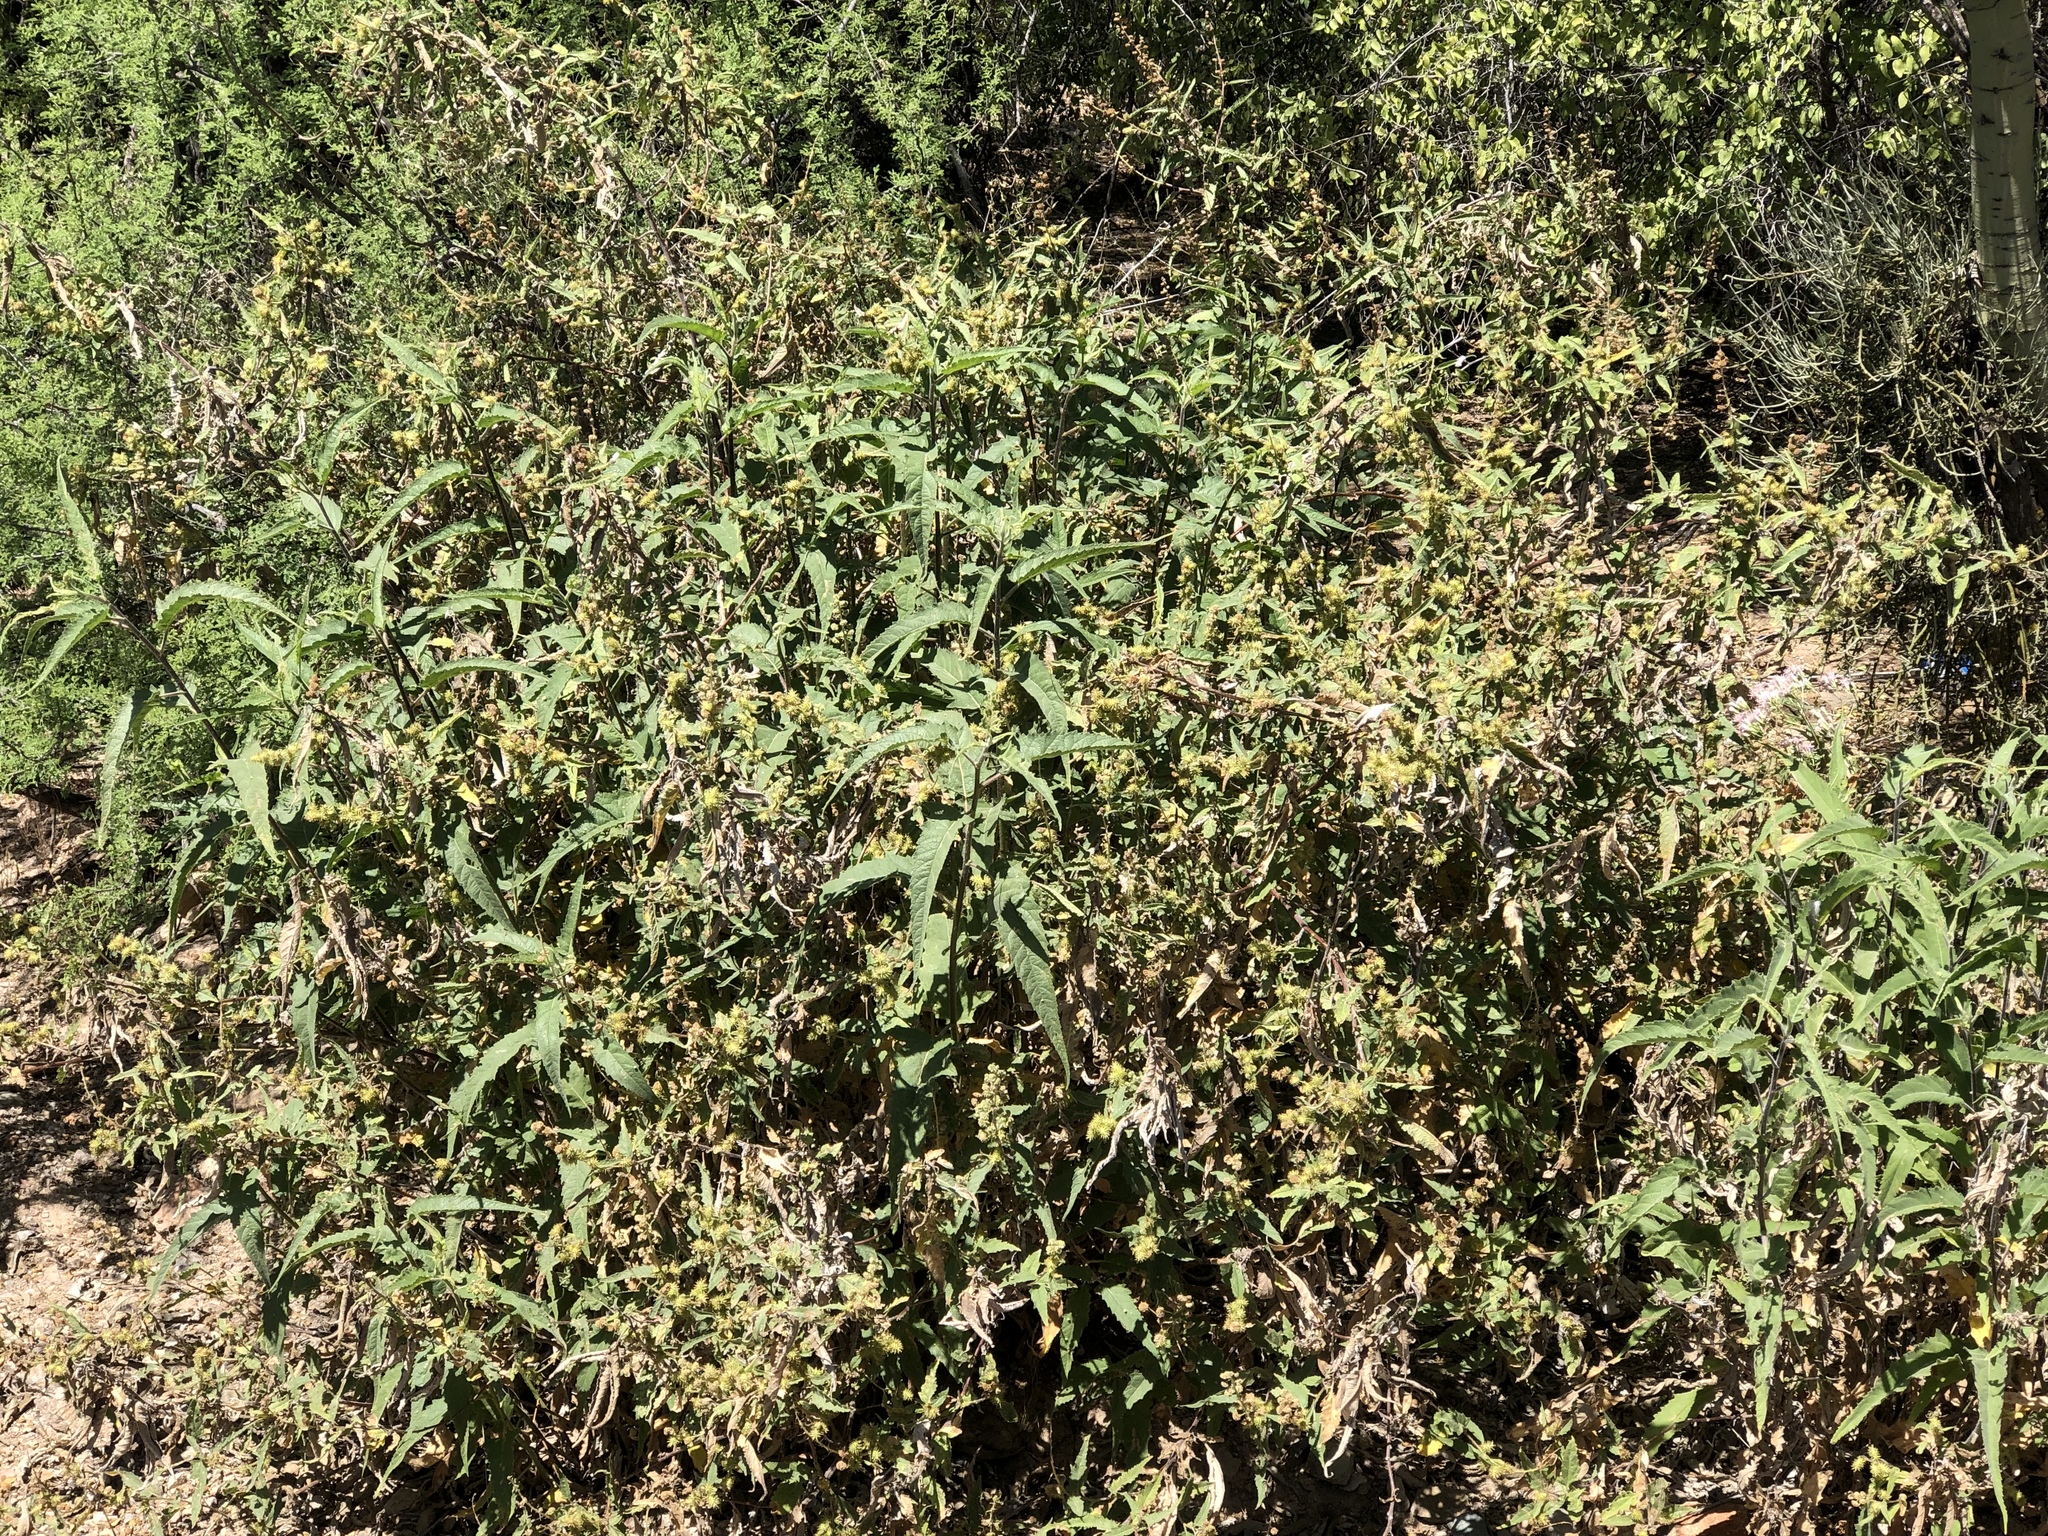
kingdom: Plantae
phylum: Tracheophyta
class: Magnoliopsida
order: Asterales
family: Asteraceae
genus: Ambrosia
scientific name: Ambrosia ambrosioides
